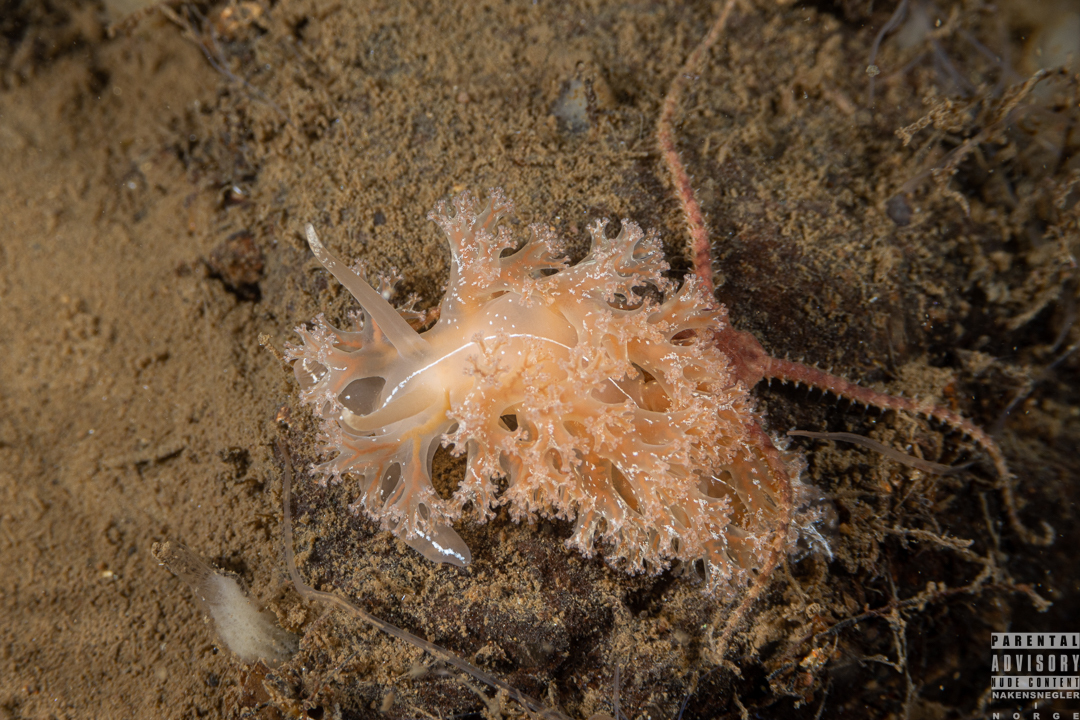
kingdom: Animalia
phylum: Mollusca
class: Gastropoda
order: Nudibranchia
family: Heroidae
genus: Hero
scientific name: Hero formosa
